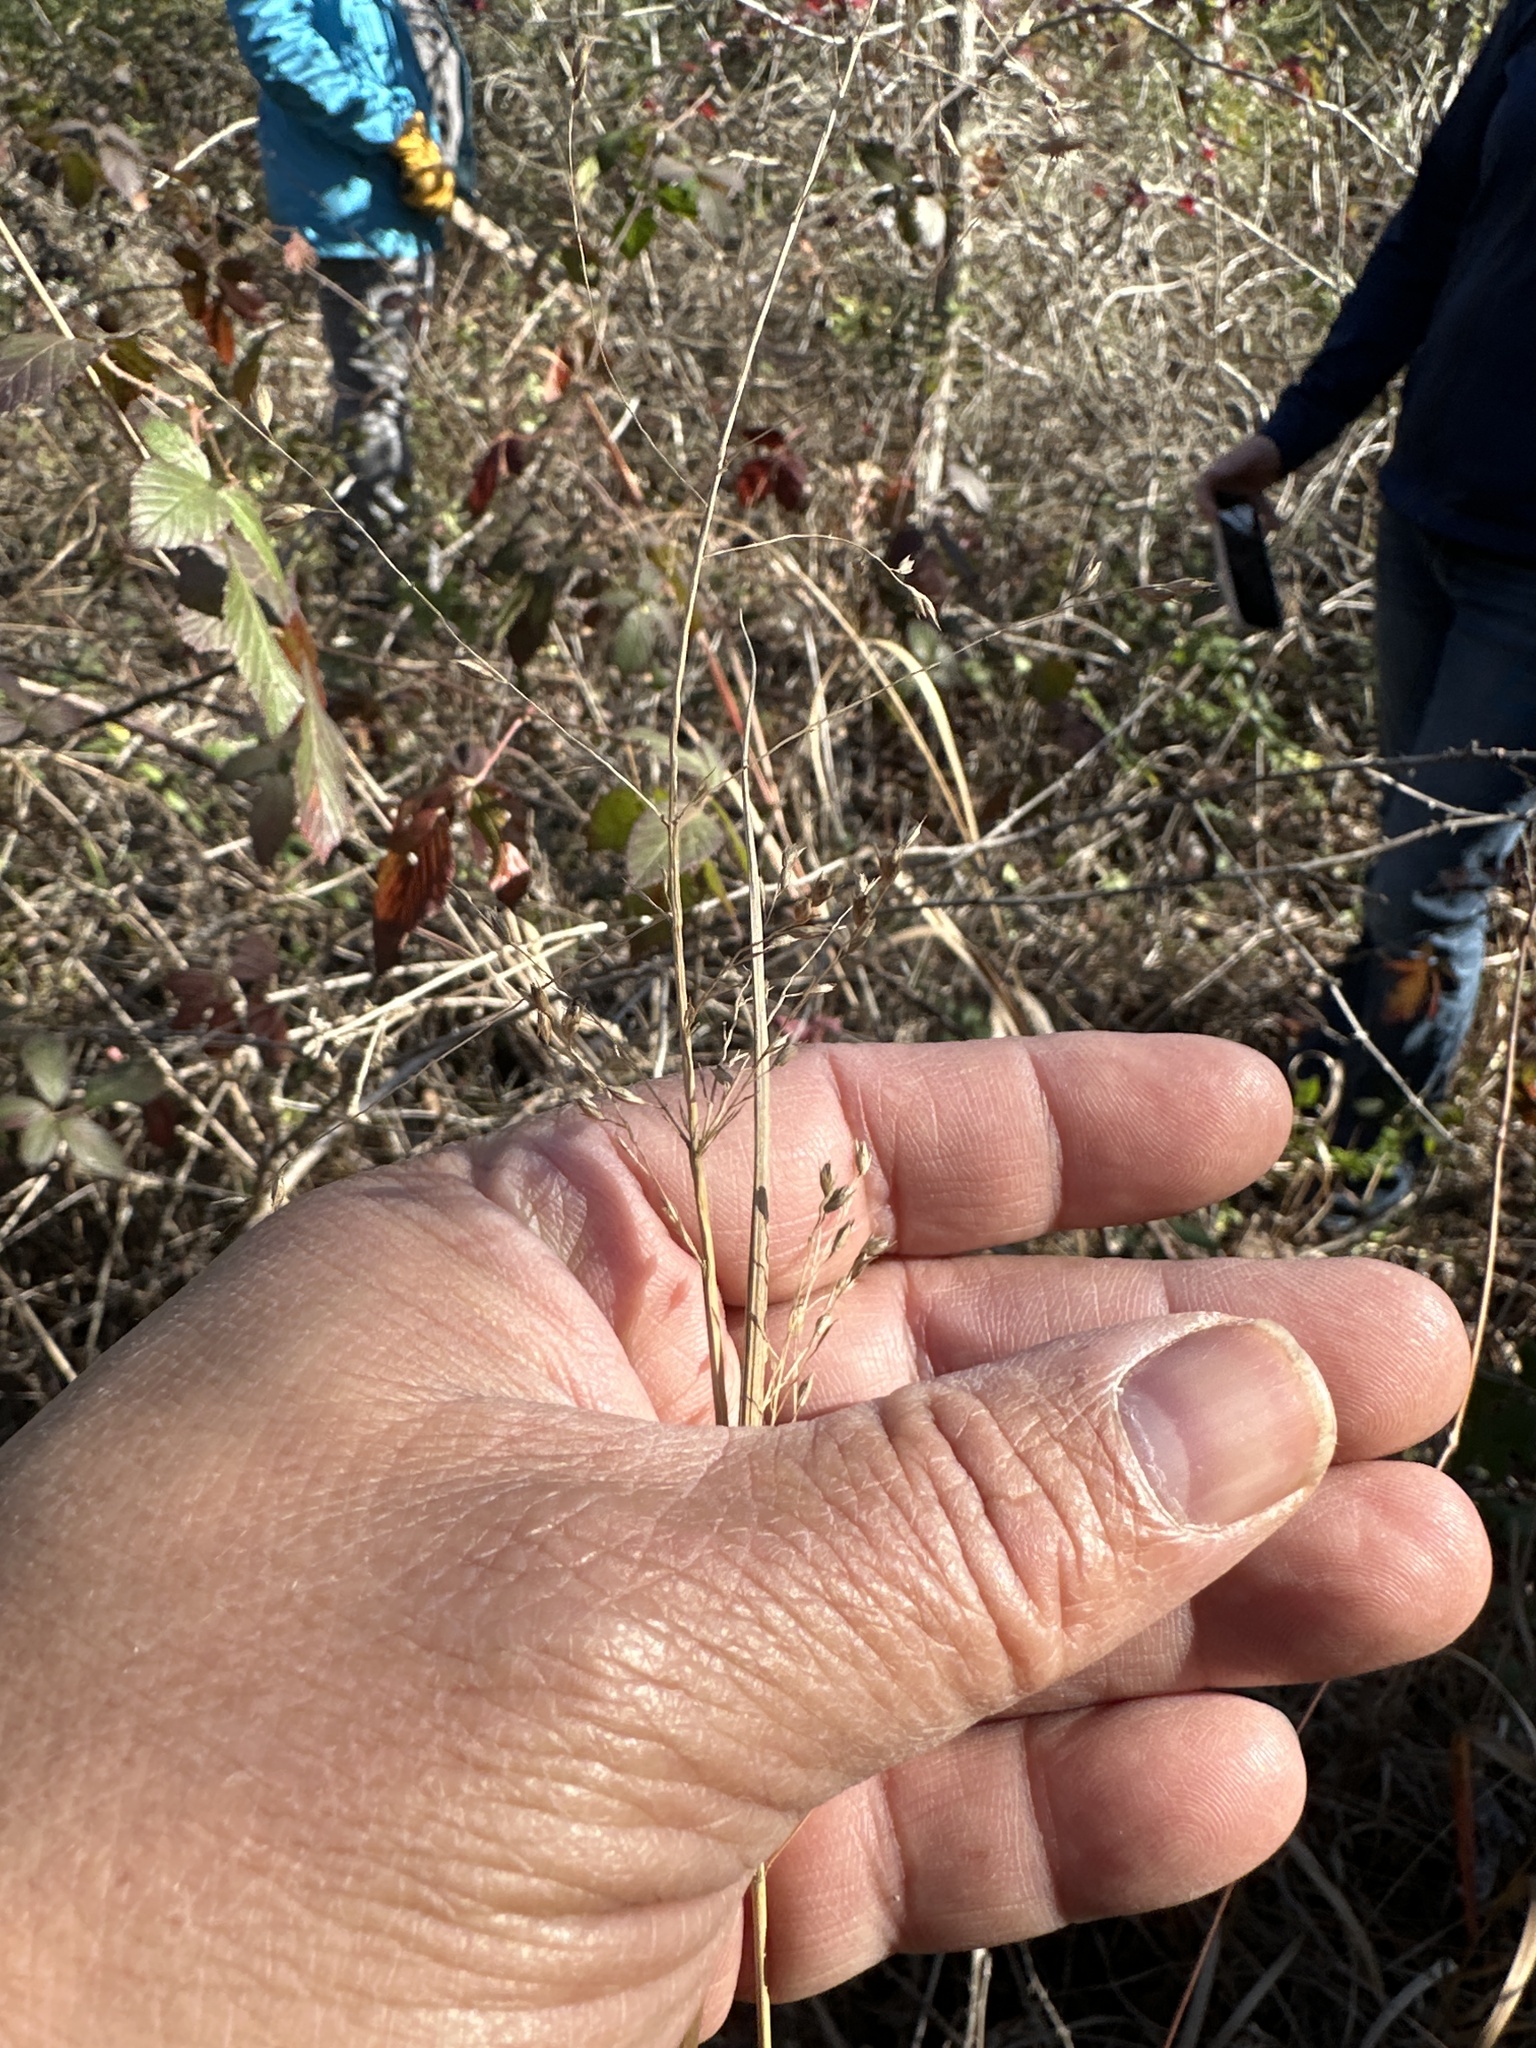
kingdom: Plantae
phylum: Tracheophyta
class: Liliopsida
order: Poales
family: Poaceae
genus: Panicum
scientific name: Panicum virgatum
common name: Switchgrass
